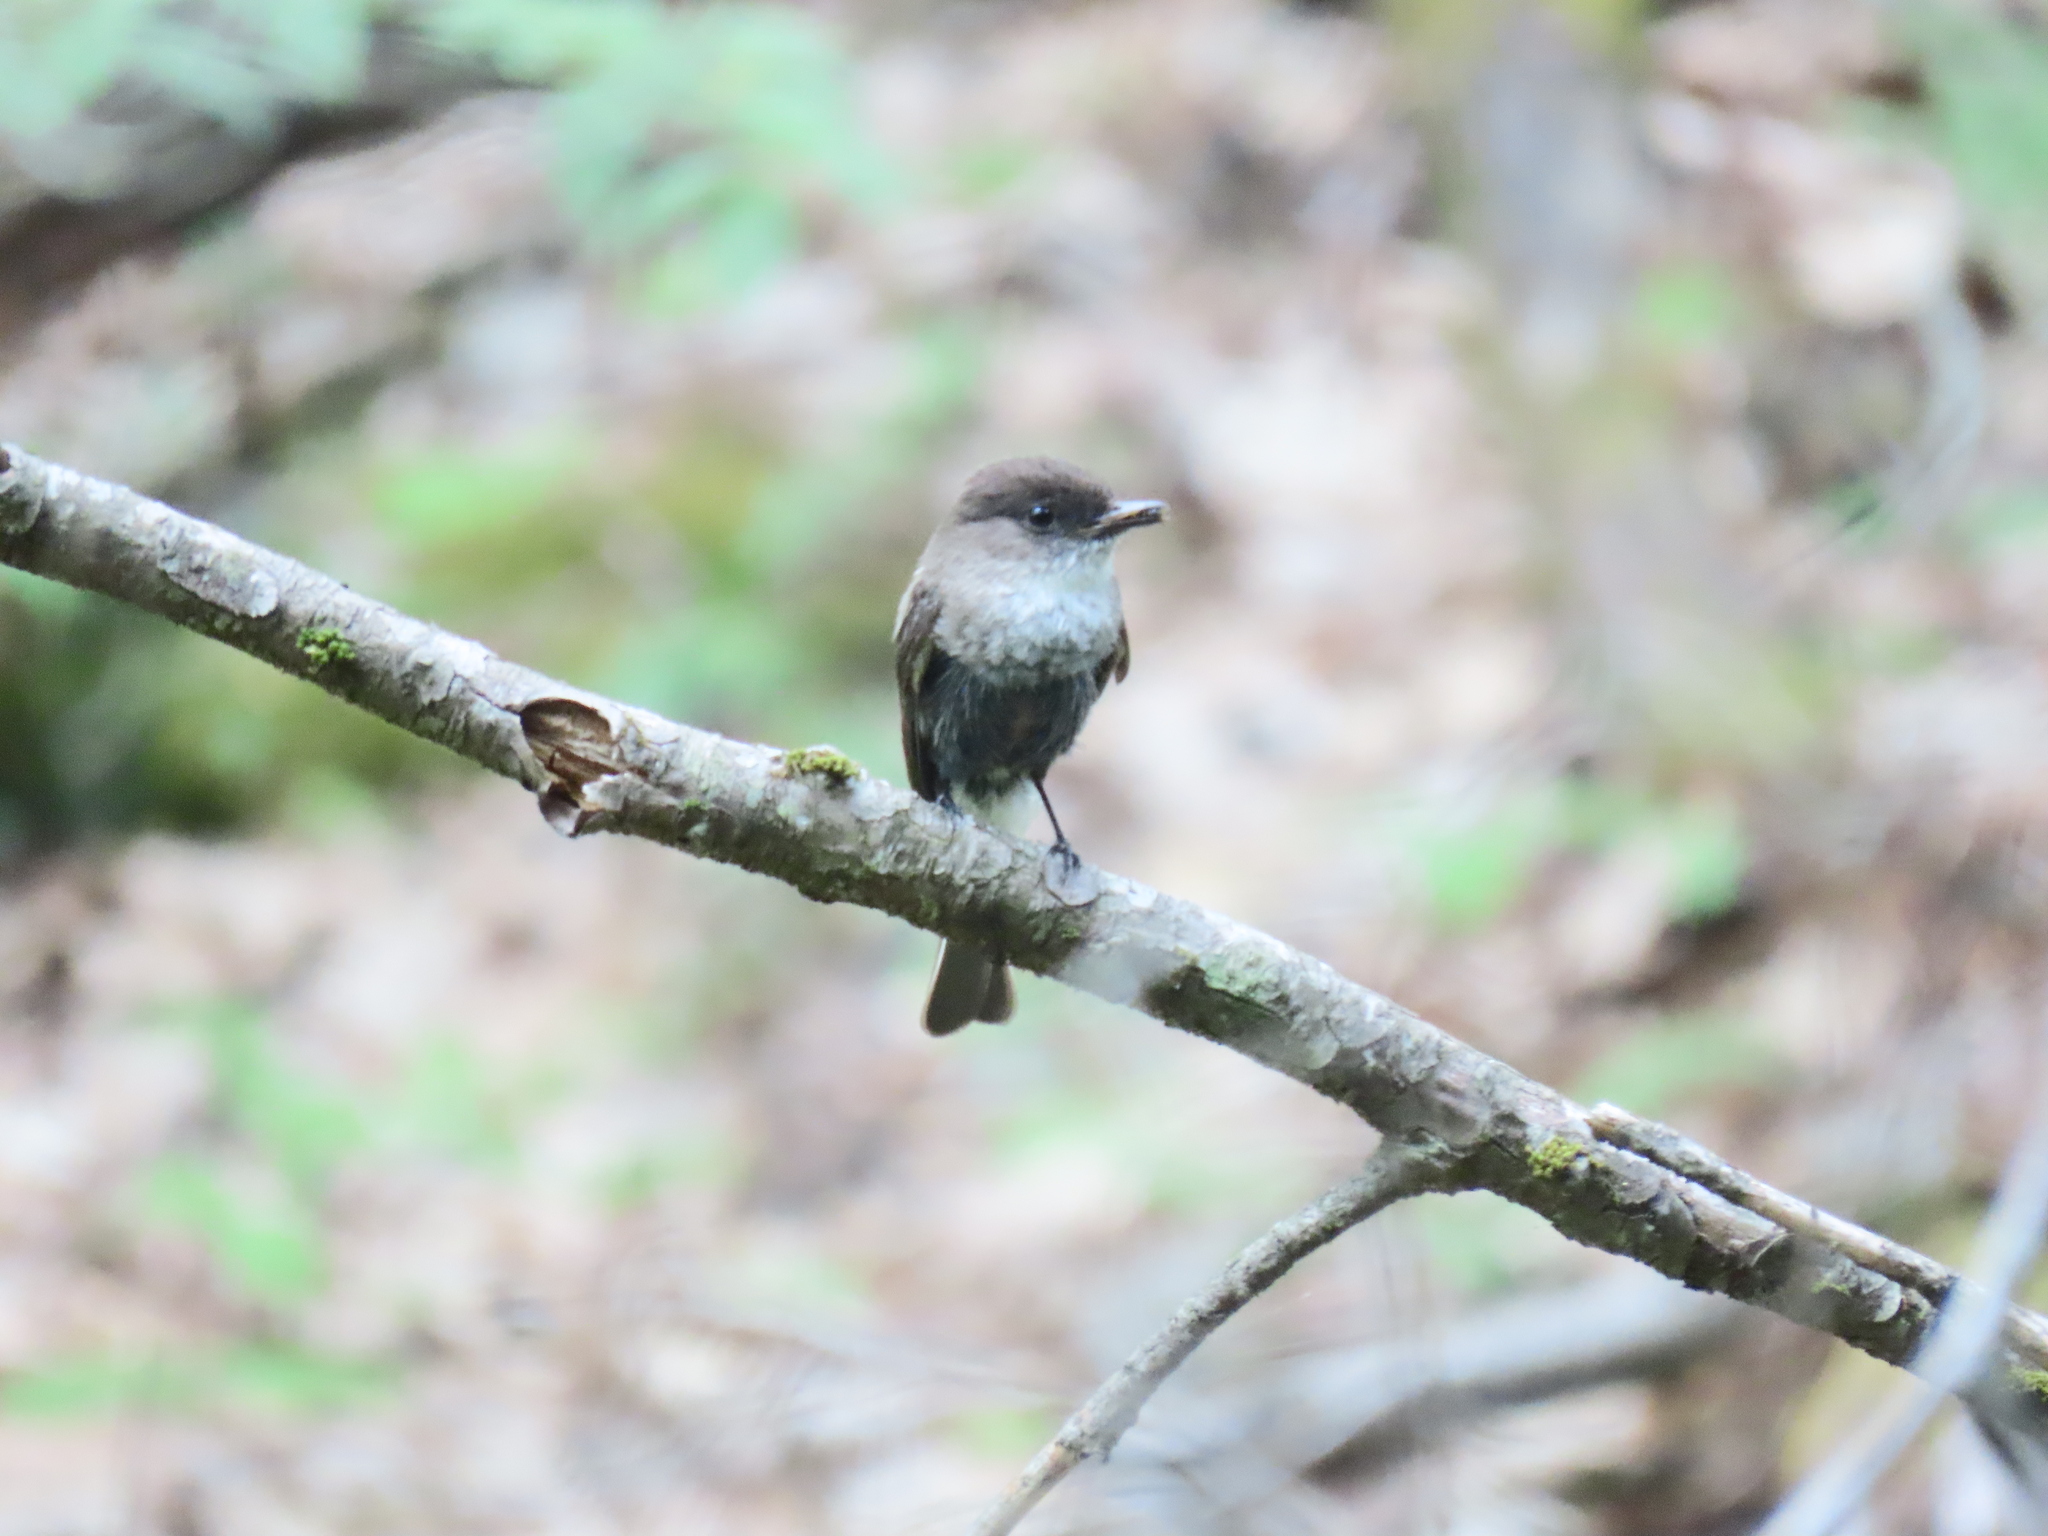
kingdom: Animalia
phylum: Chordata
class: Aves
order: Passeriformes
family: Tyrannidae
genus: Sayornis
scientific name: Sayornis phoebe
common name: Eastern phoebe
